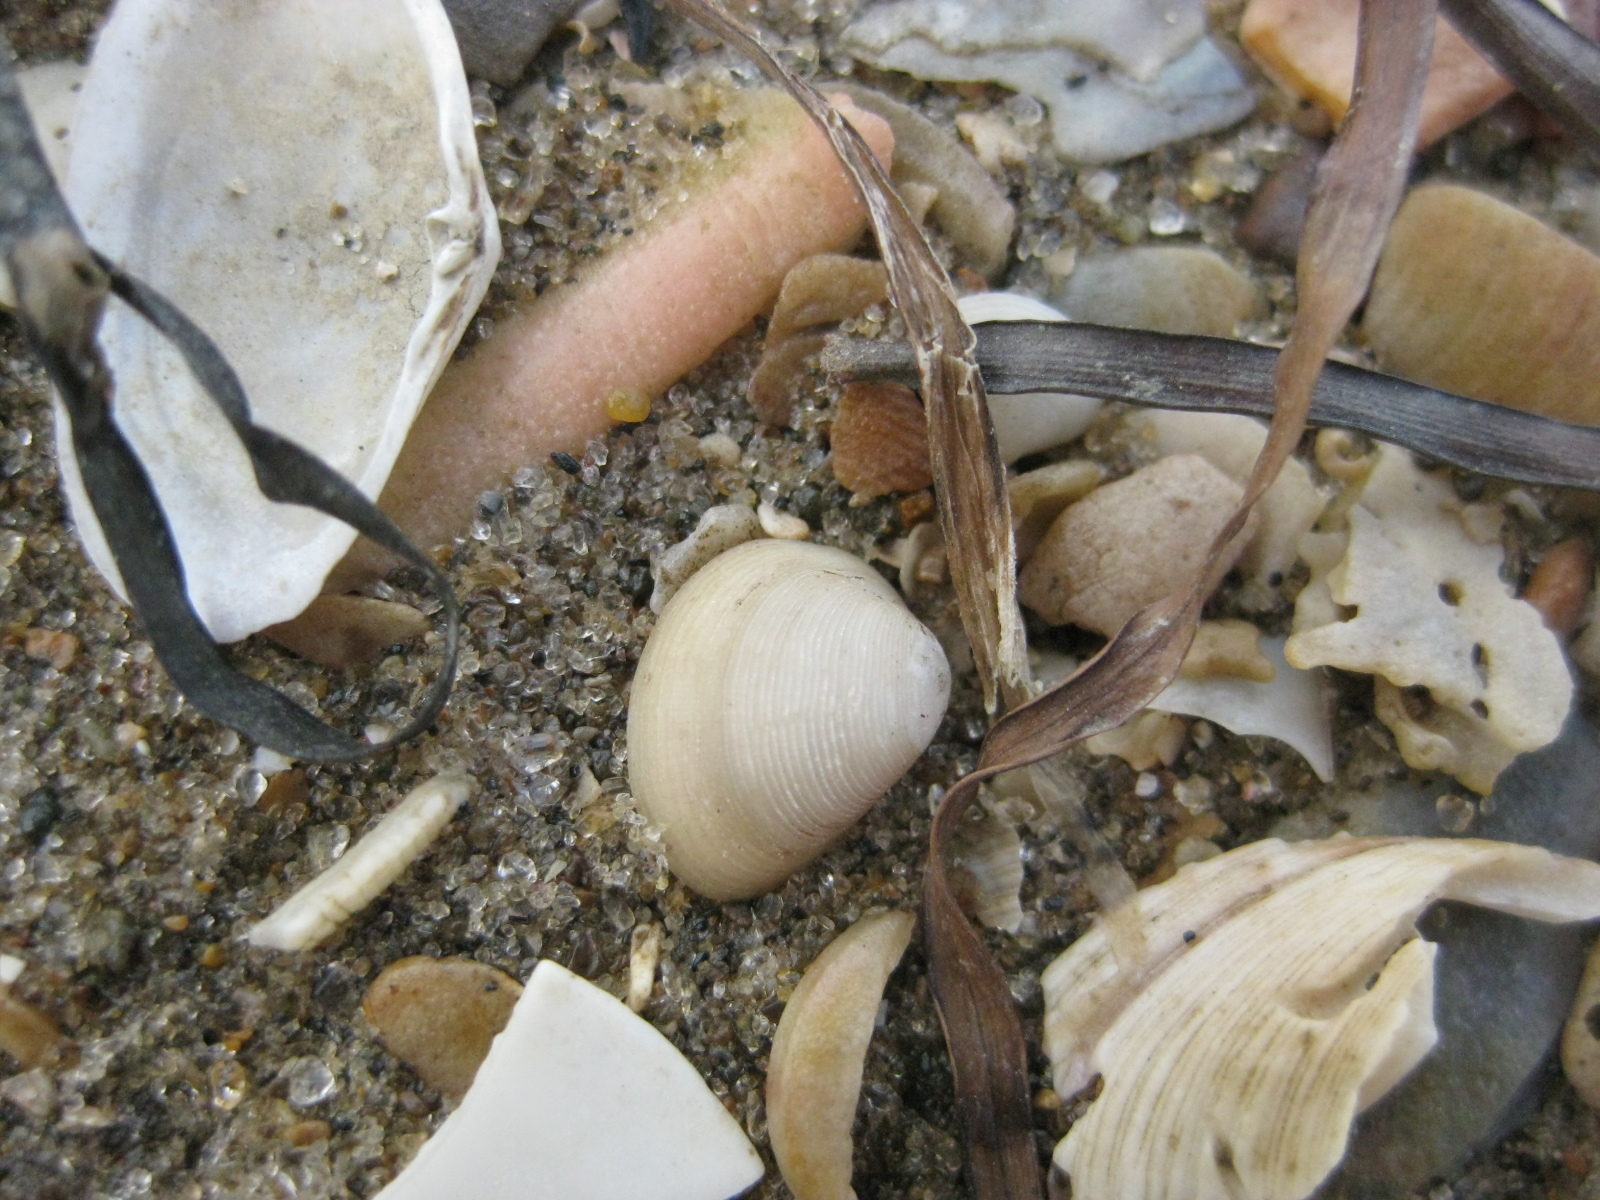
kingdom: Animalia
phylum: Mollusca
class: Bivalvia
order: Nuculida
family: Nuculidae
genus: Linucula
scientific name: Linucula hartvigiana
